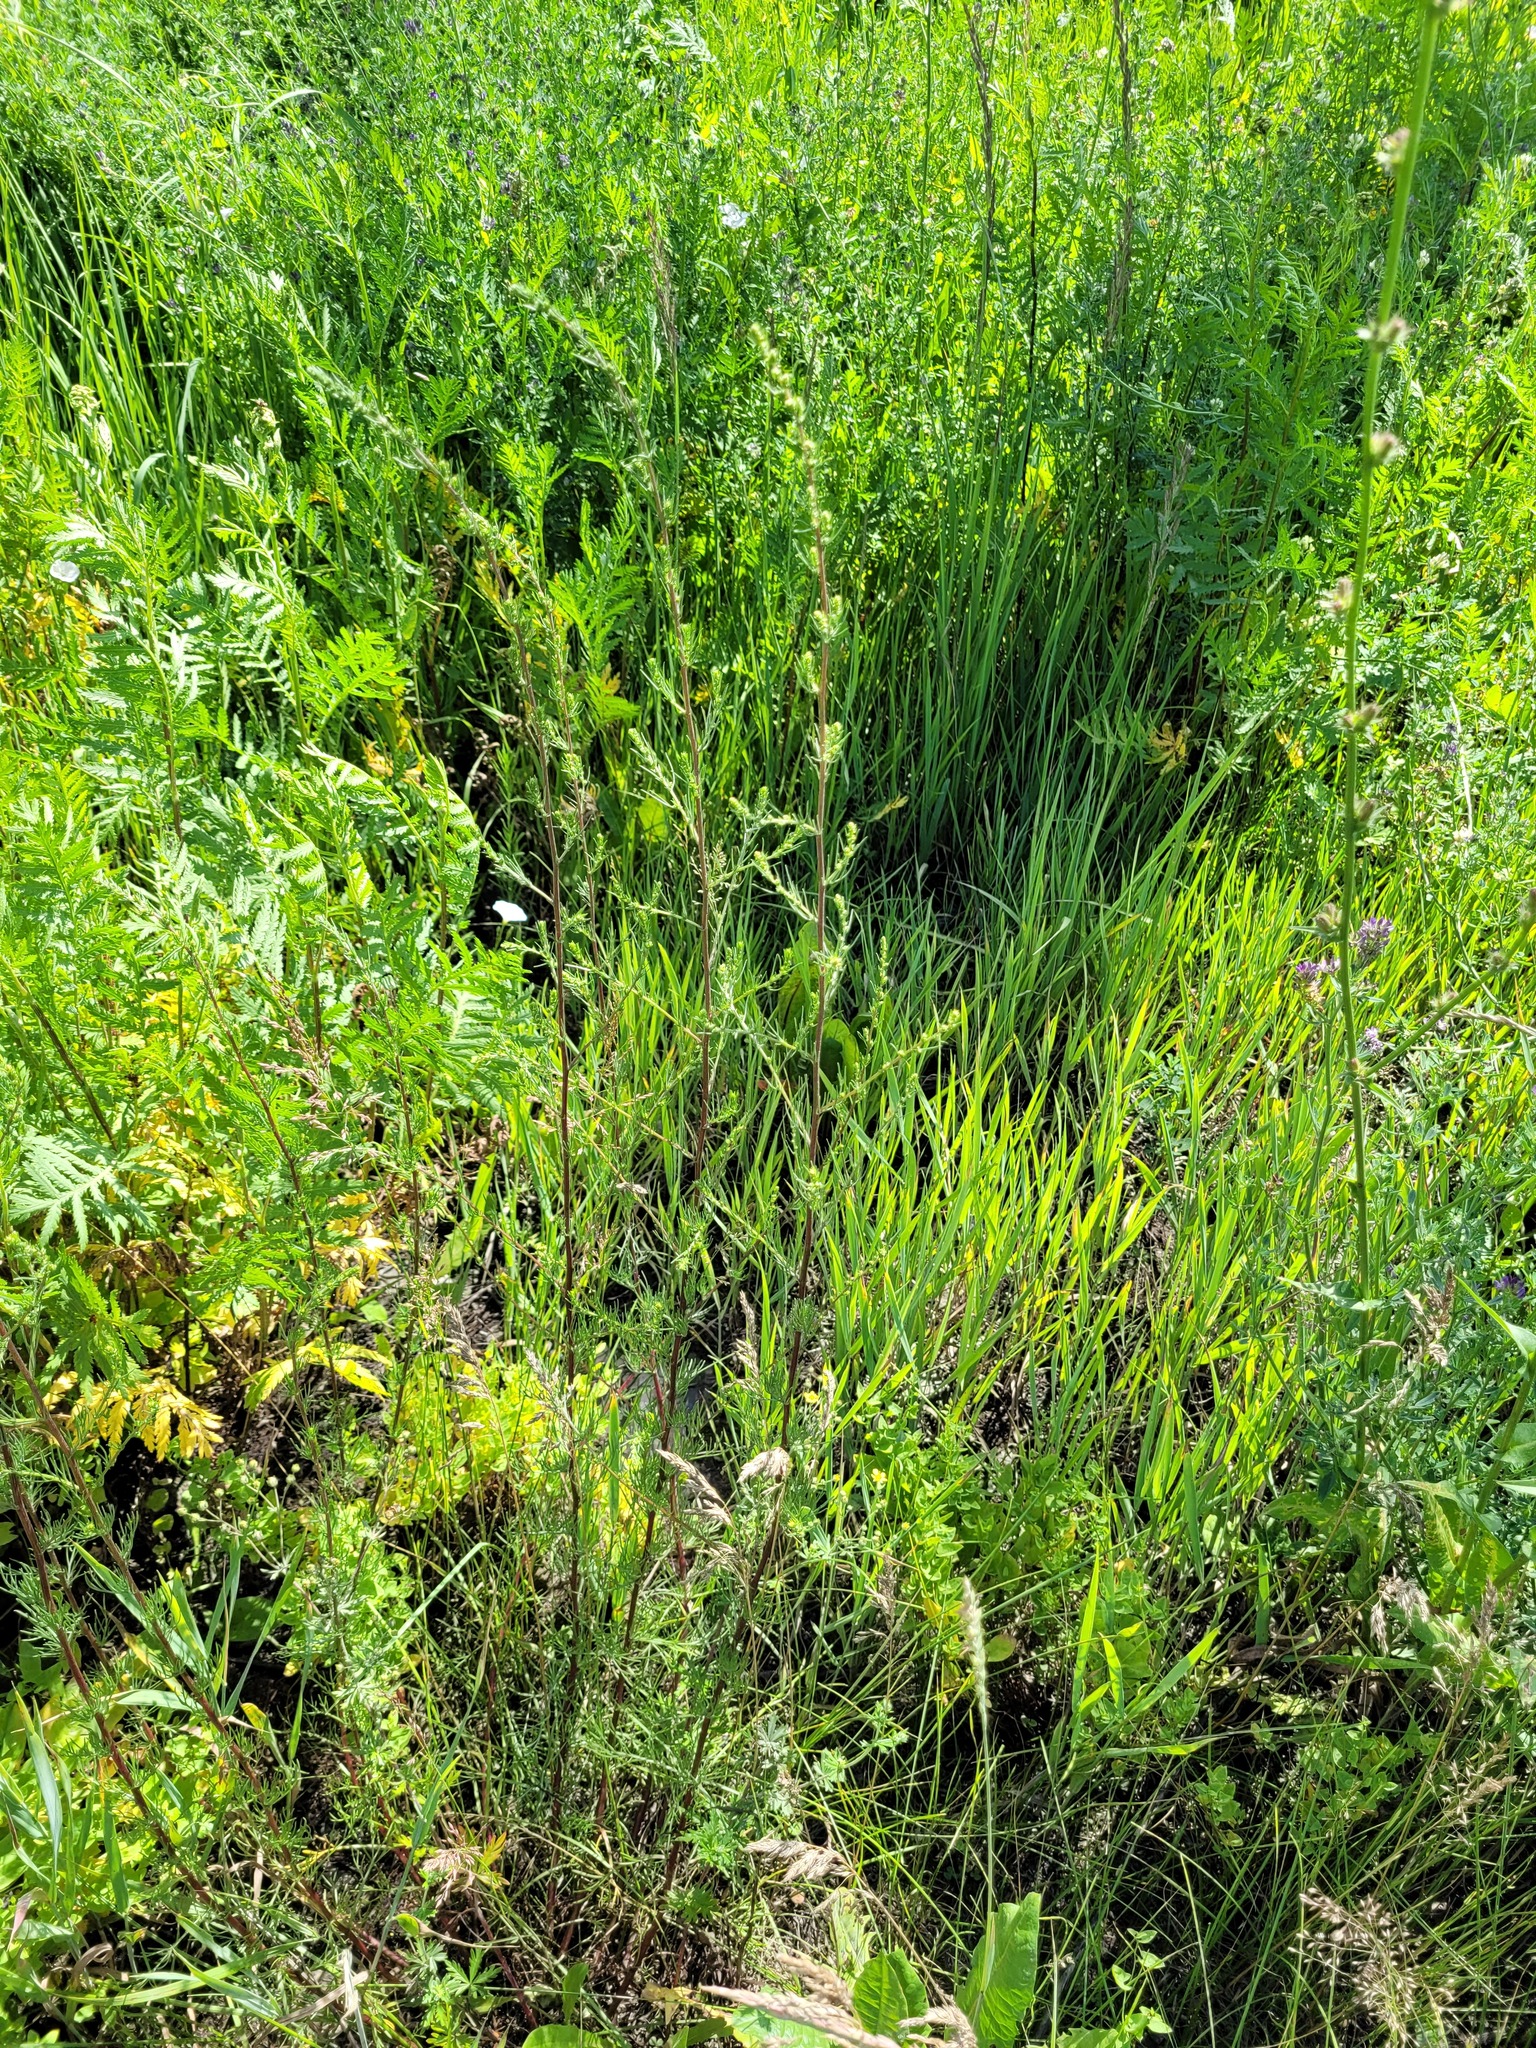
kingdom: Plantae
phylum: Tracheophyta
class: Magnoliopsida
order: Asterales
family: Asteraceae
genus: Artemisia
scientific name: Artemisia campestris
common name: Field wormwood
